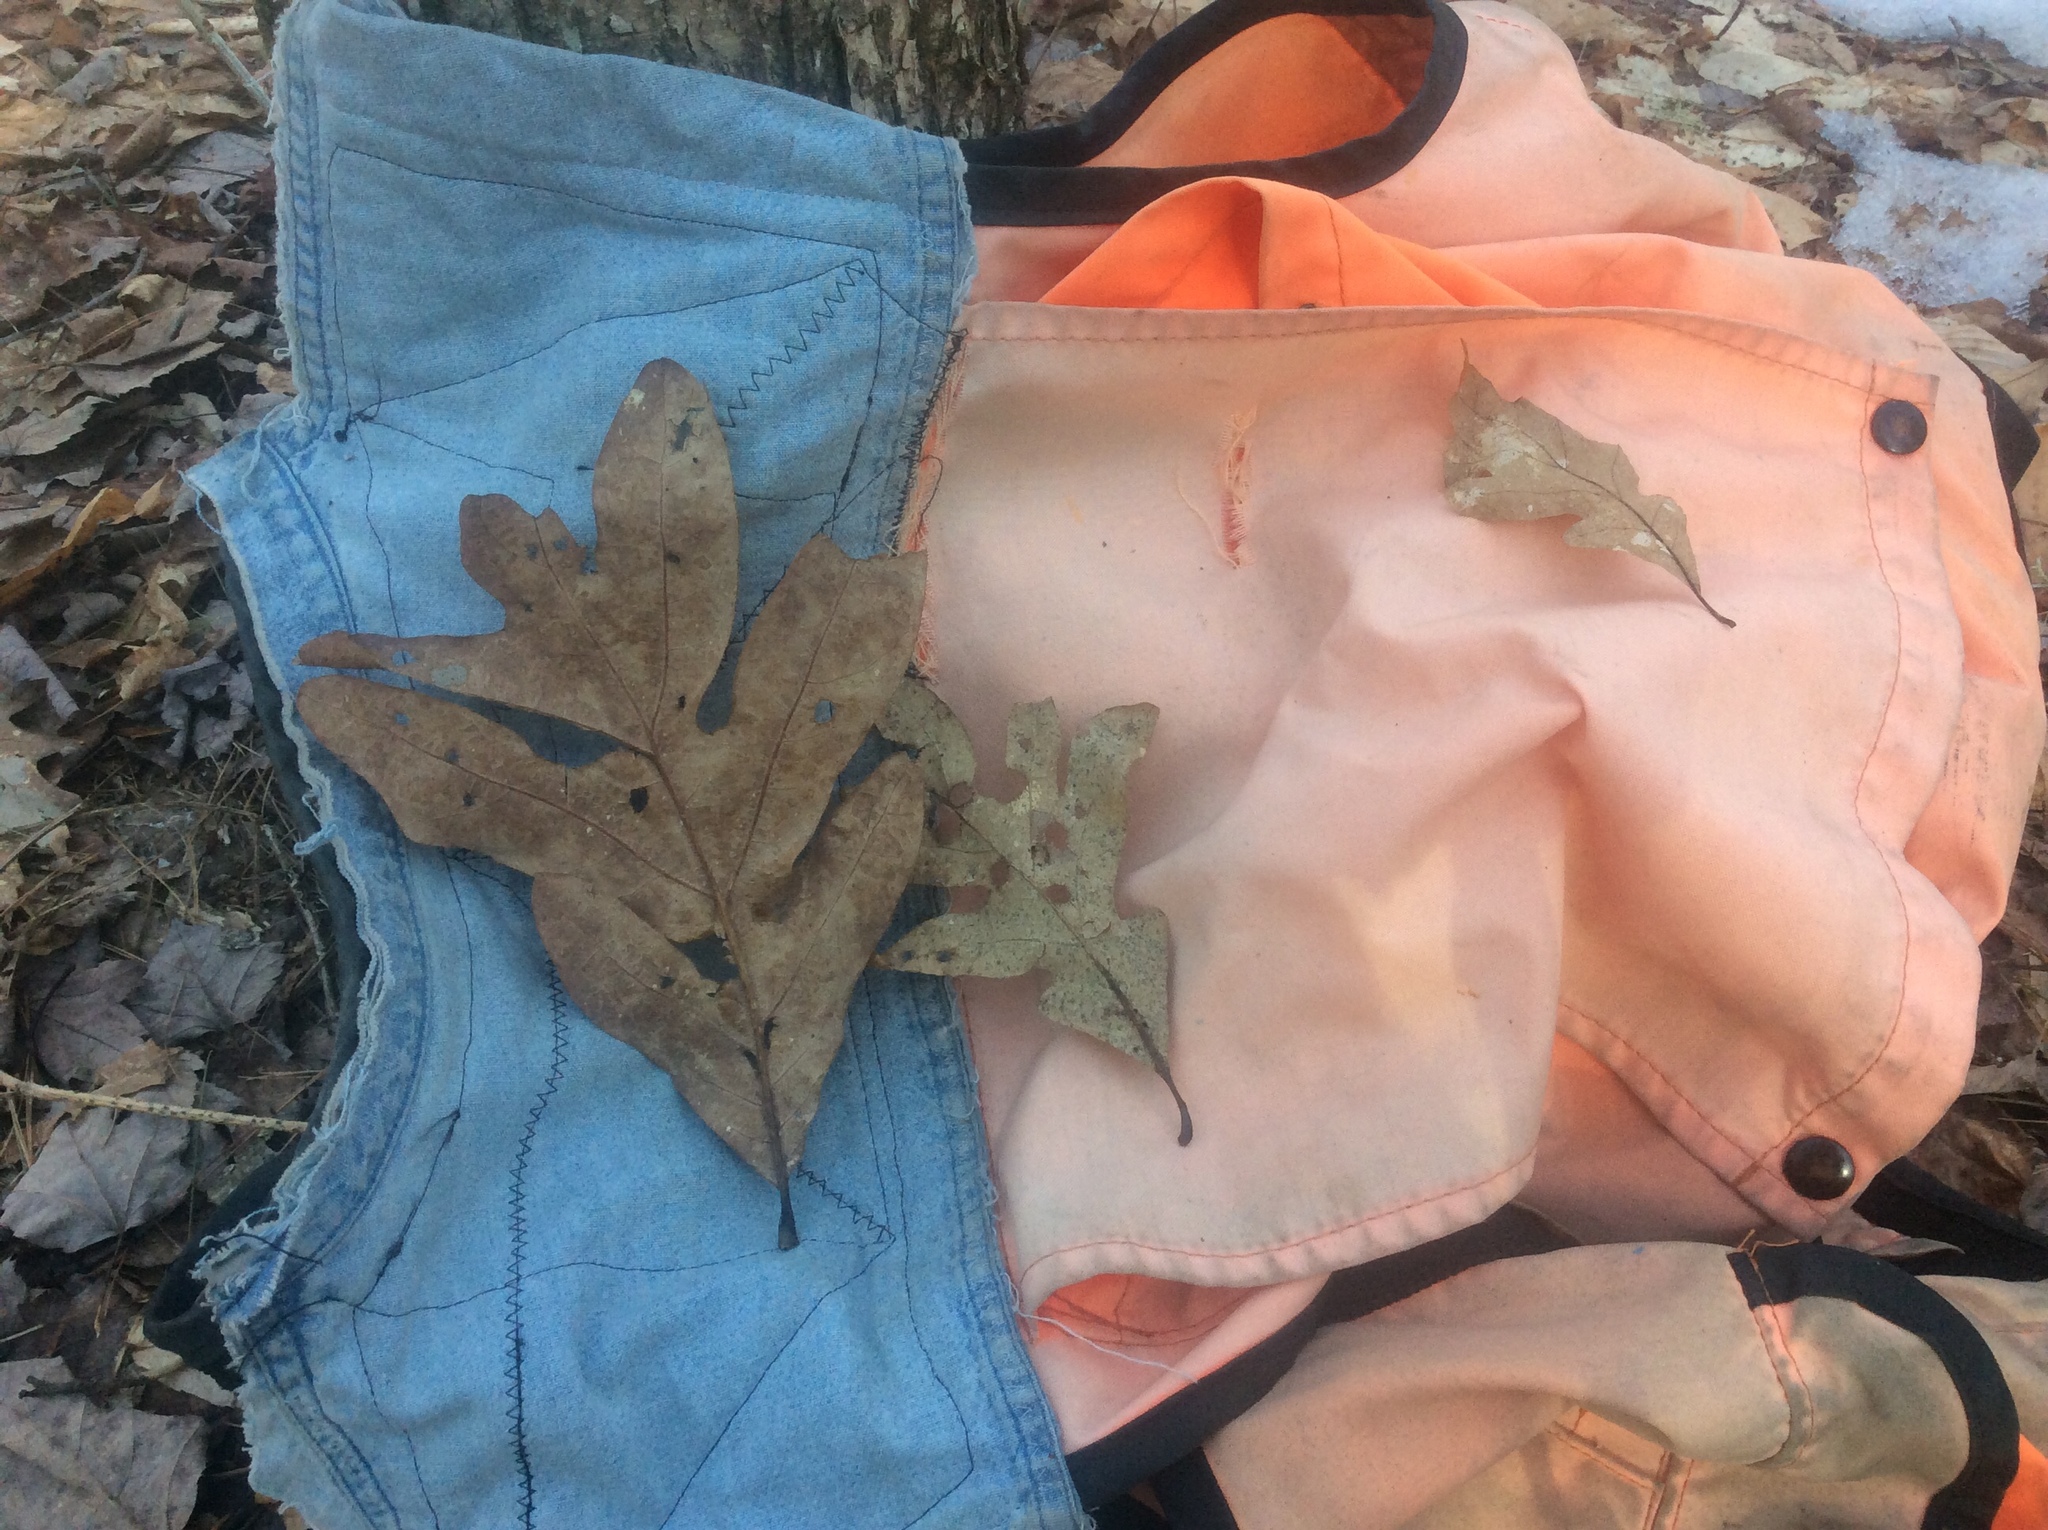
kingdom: Plantae
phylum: Tracheophyta
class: Magnoliopsida
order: Fagales
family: Fagaceae
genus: Quercus
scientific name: Quercus alba
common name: White oak
